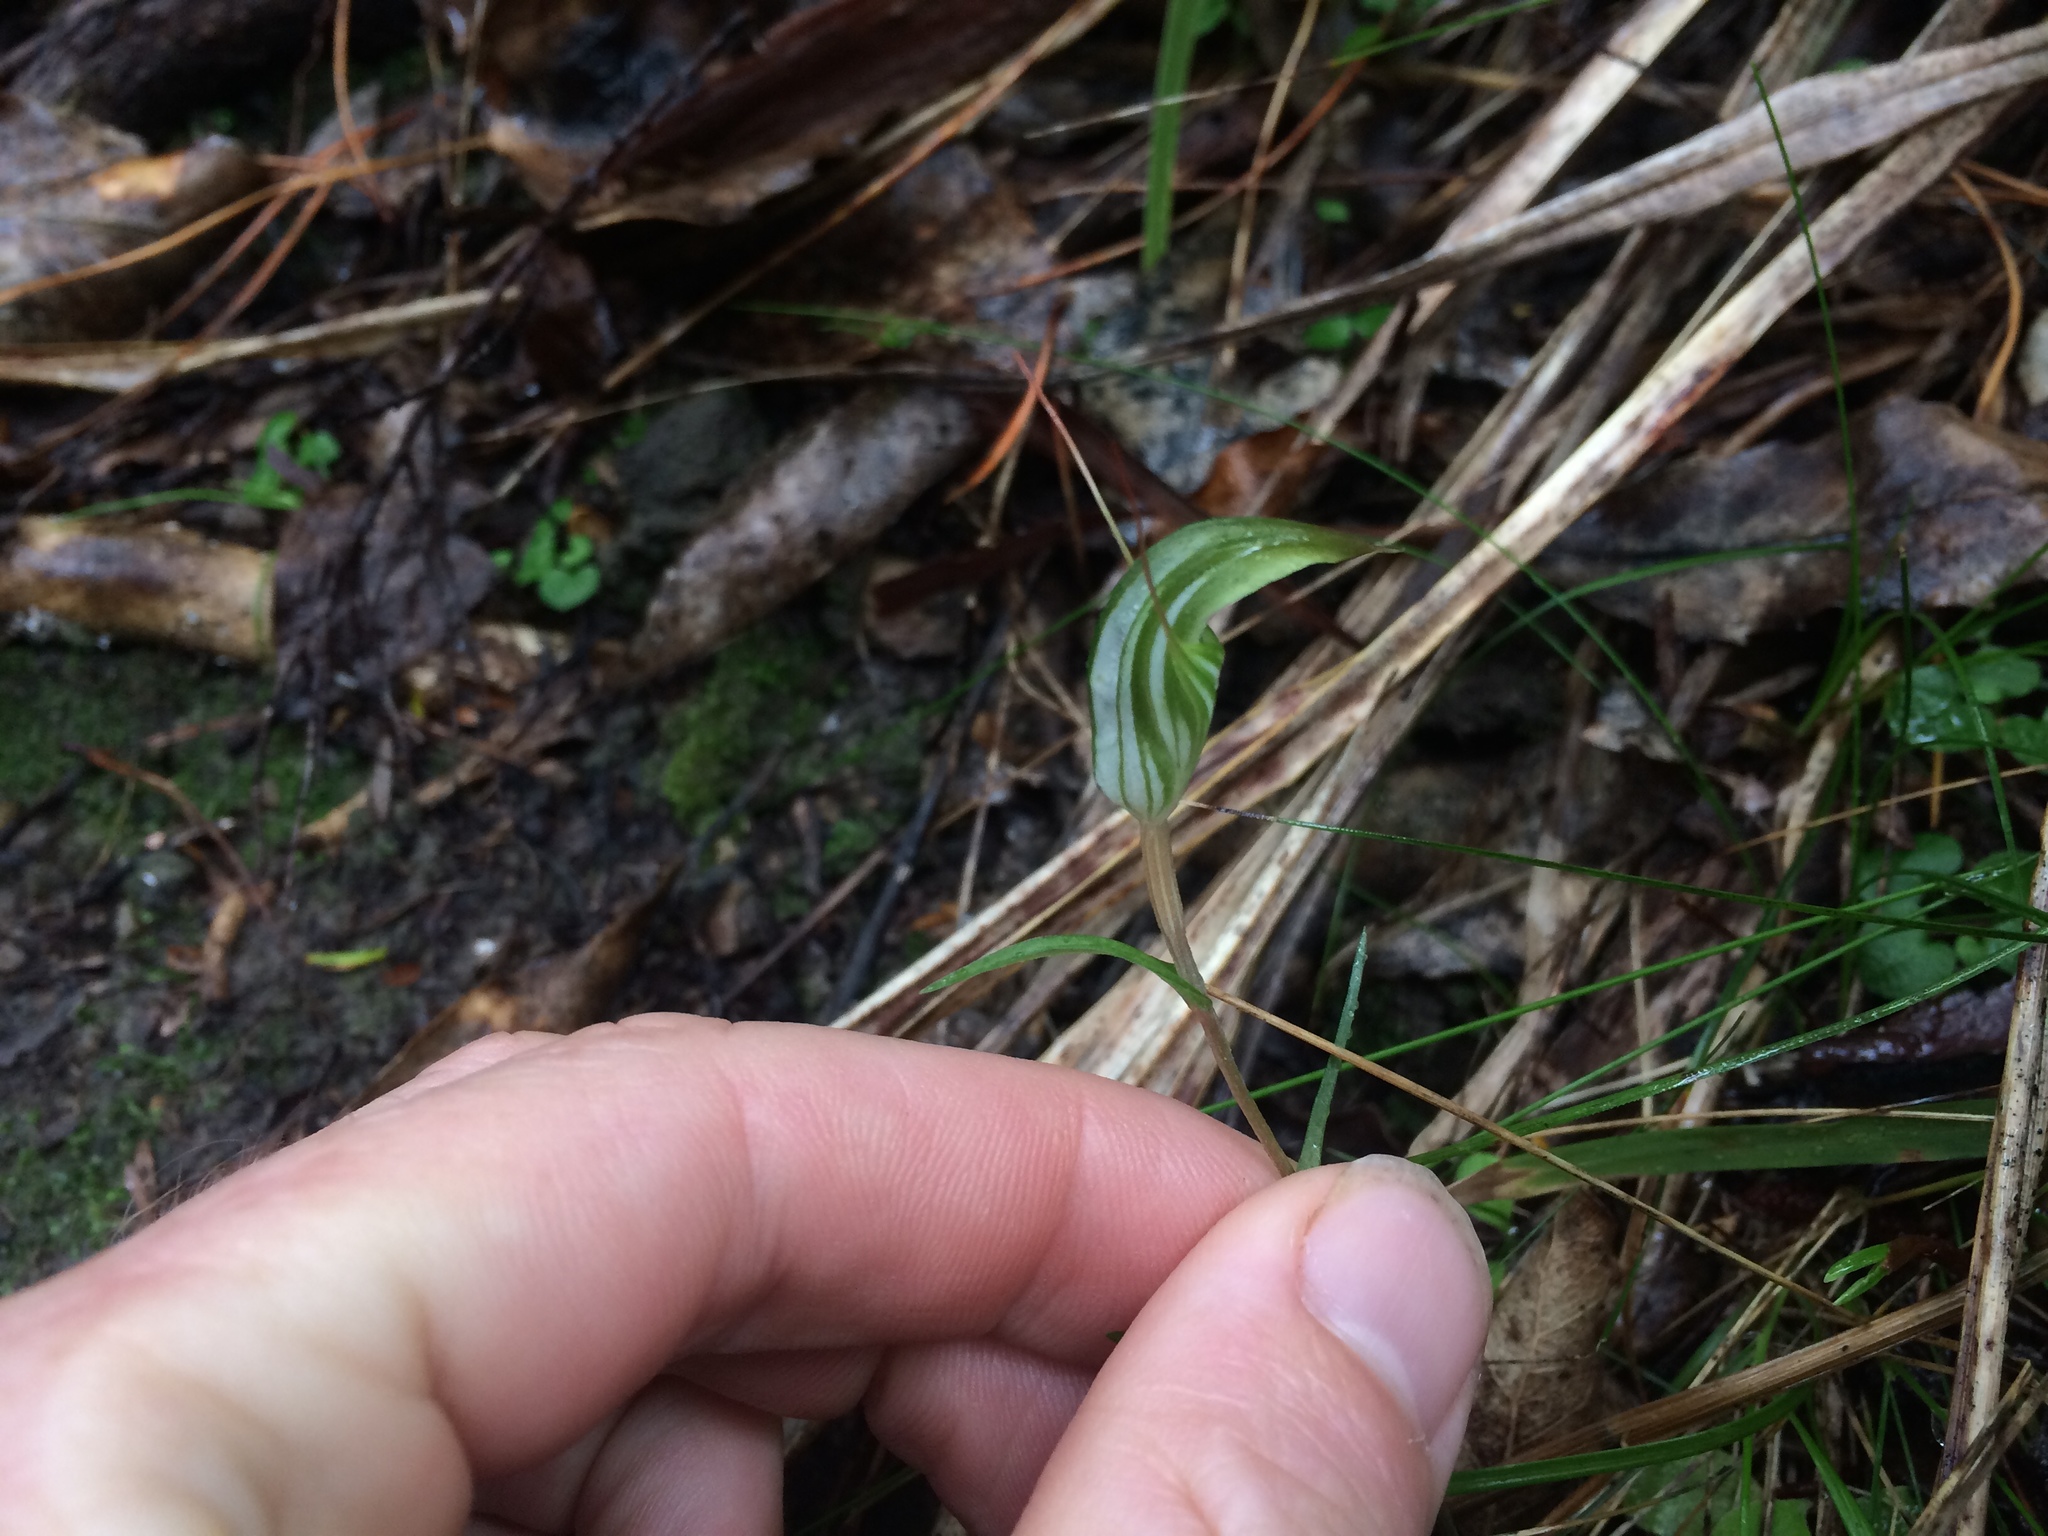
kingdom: Plantae
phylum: Tracheophyta
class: Liliopsida
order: Asparagales
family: Orchidaceae
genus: Pterostylis
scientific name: Pterostylis alobula
